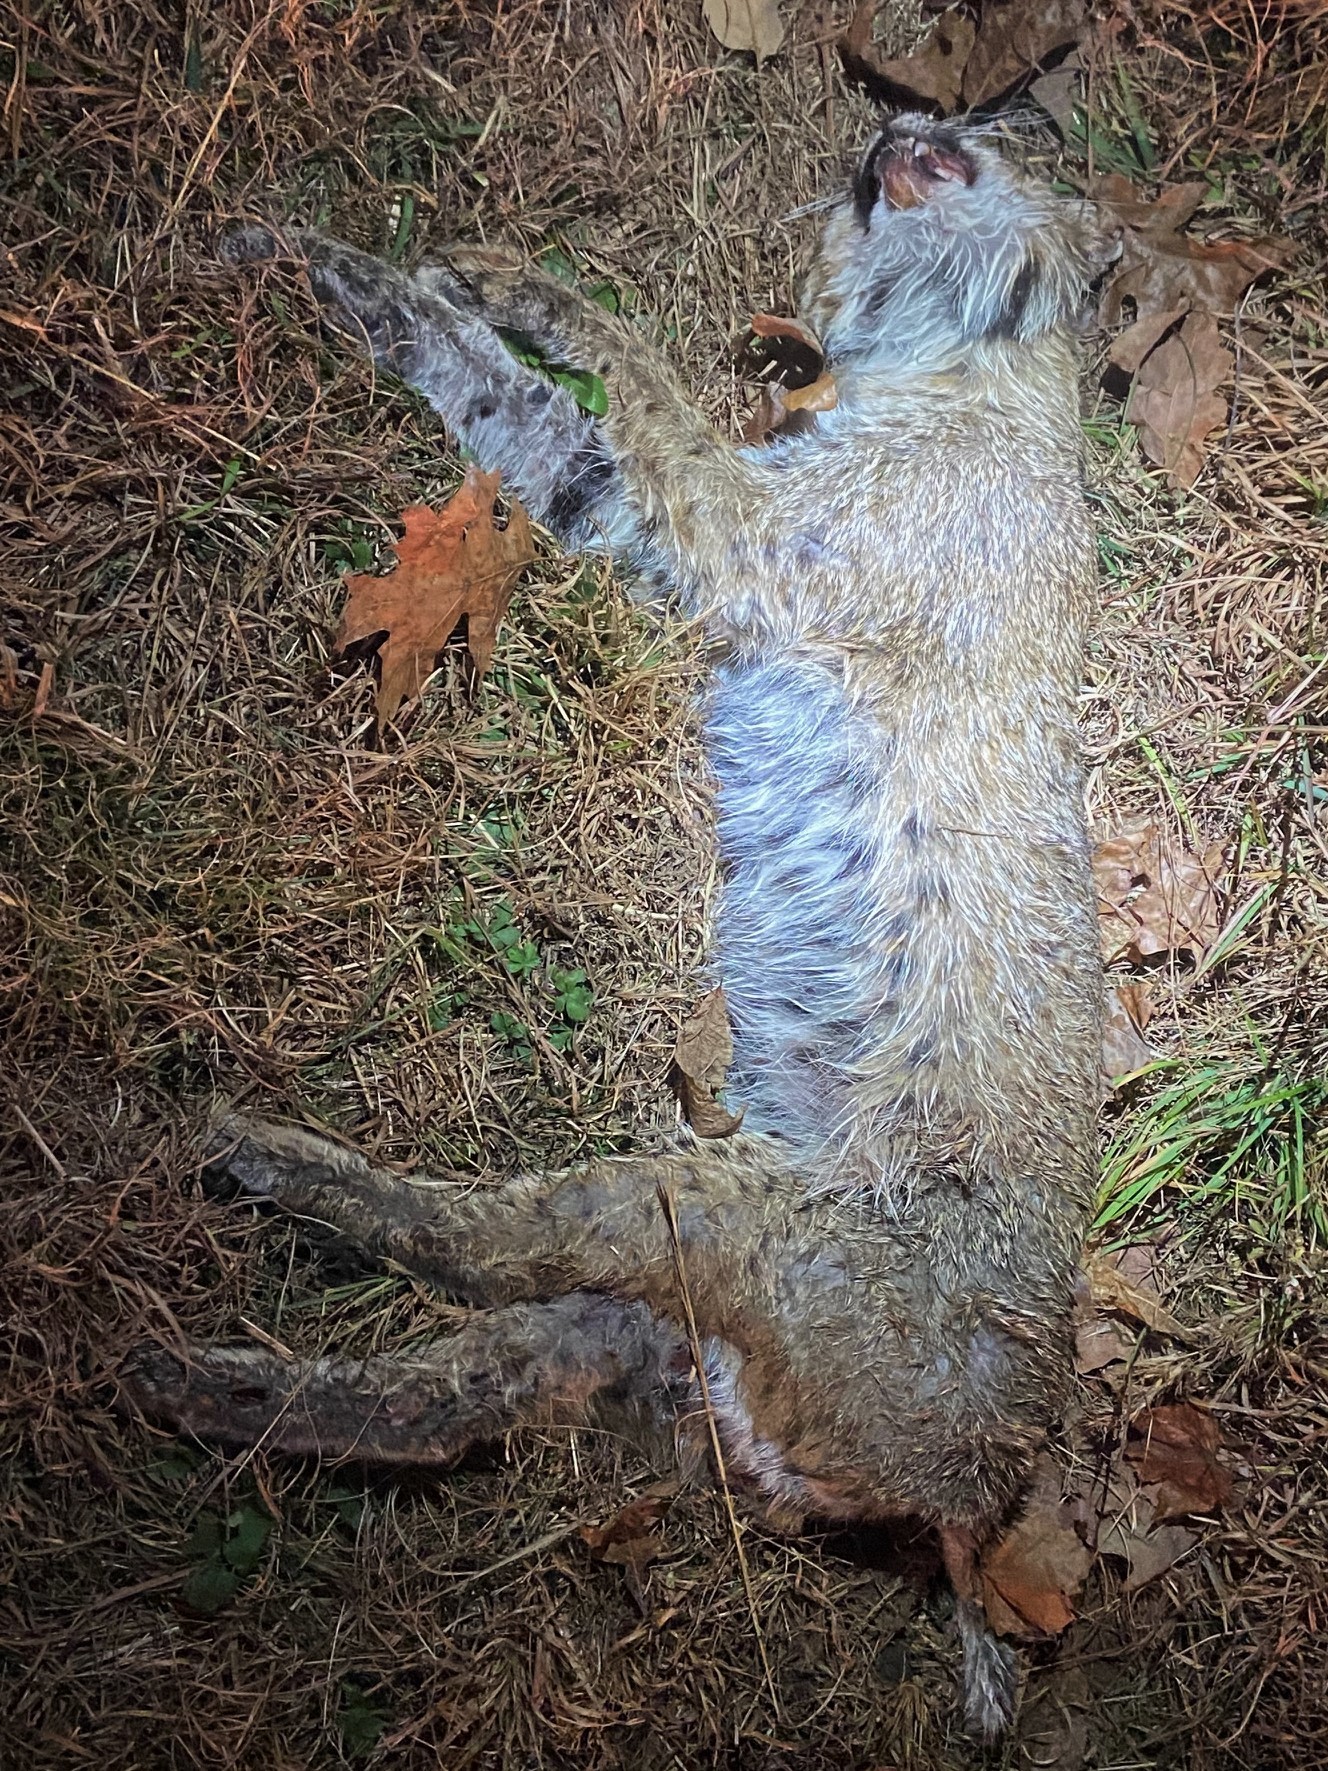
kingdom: Animalia
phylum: Chordata
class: Mammalia
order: Carnivora
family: Felidae
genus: Lynx
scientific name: Lynx rufus
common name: Bobcat
